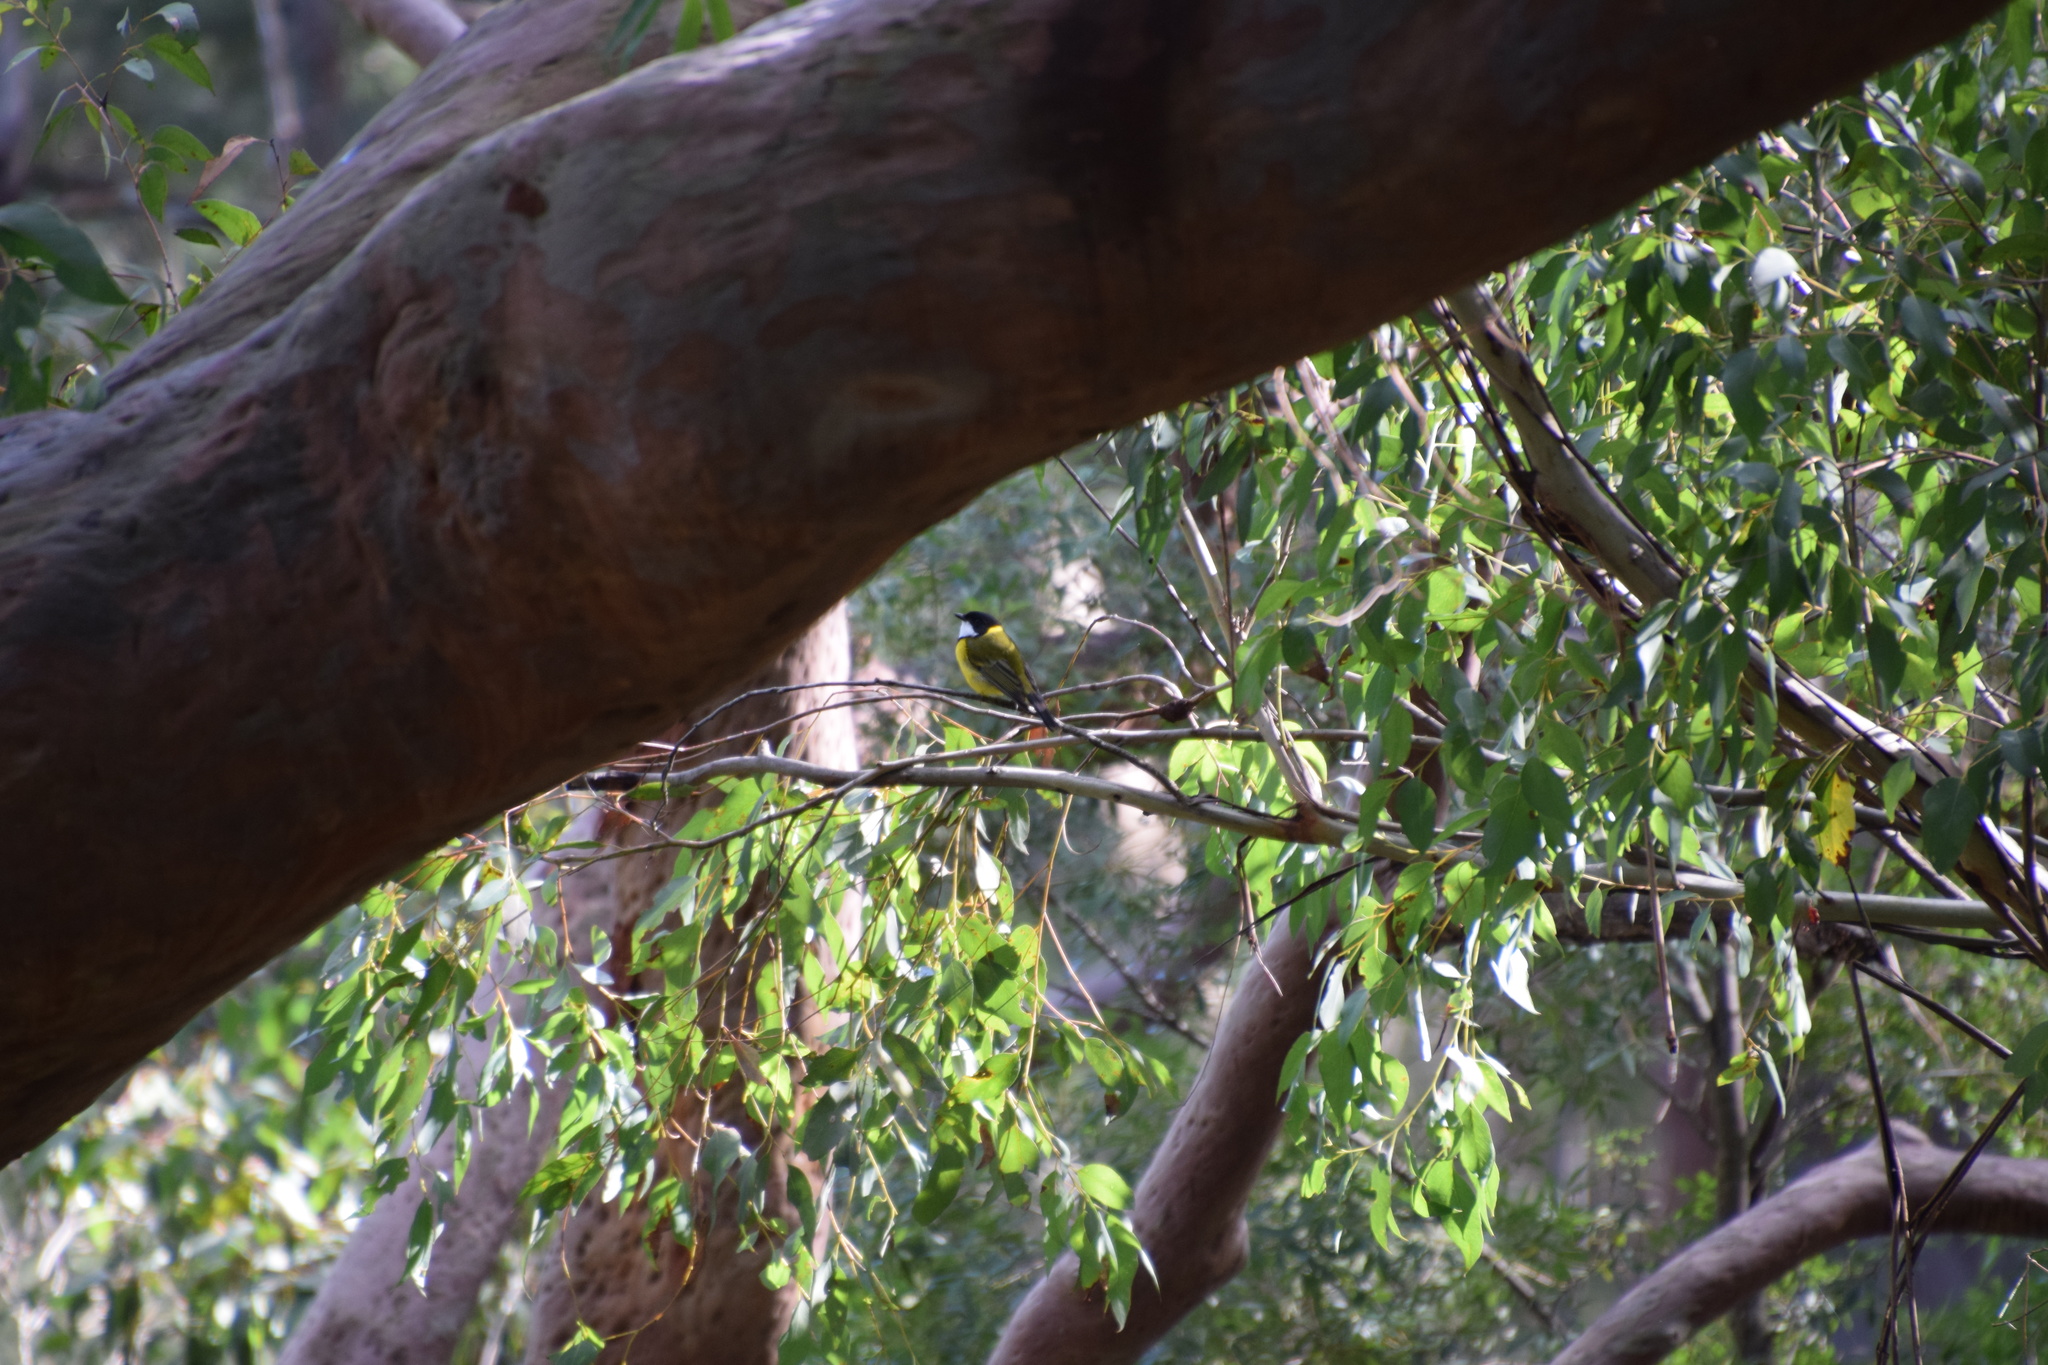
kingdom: Animalia
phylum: Chordata
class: Aves
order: Passeriformes
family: Pachycephalidae
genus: Pachycephala
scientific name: Pachycephala pectoralis
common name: Australian golden whistler
